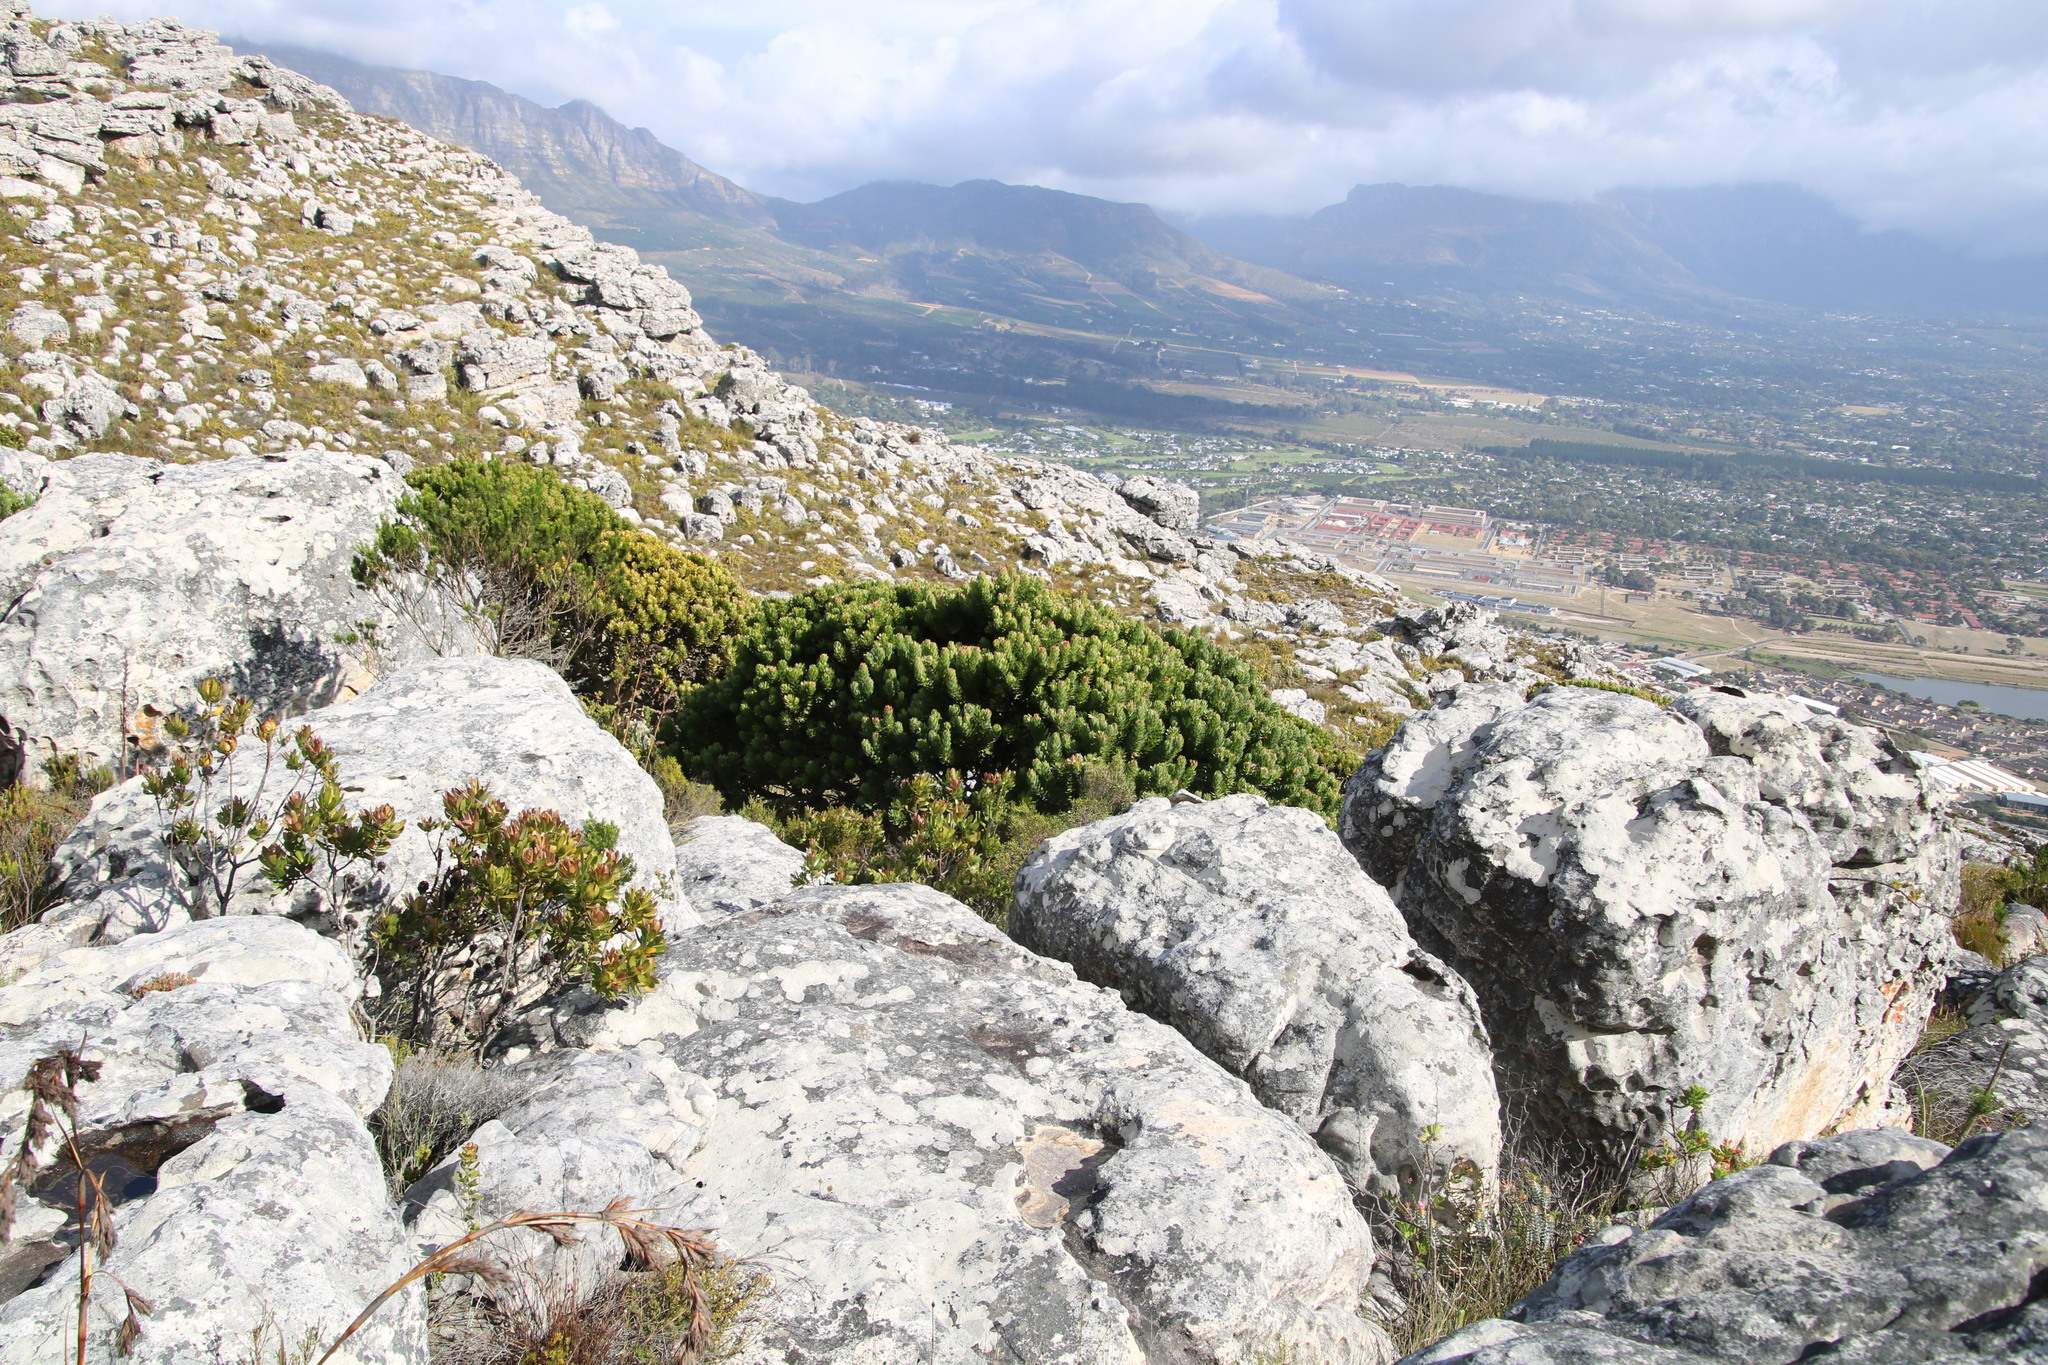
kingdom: Plantae
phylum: Tracheophyta
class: Magnoliopsida
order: Proteales
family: Proteaceae
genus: Mimetes
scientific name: Mimetes fimbriifolius
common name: Fringed bottlebrush
